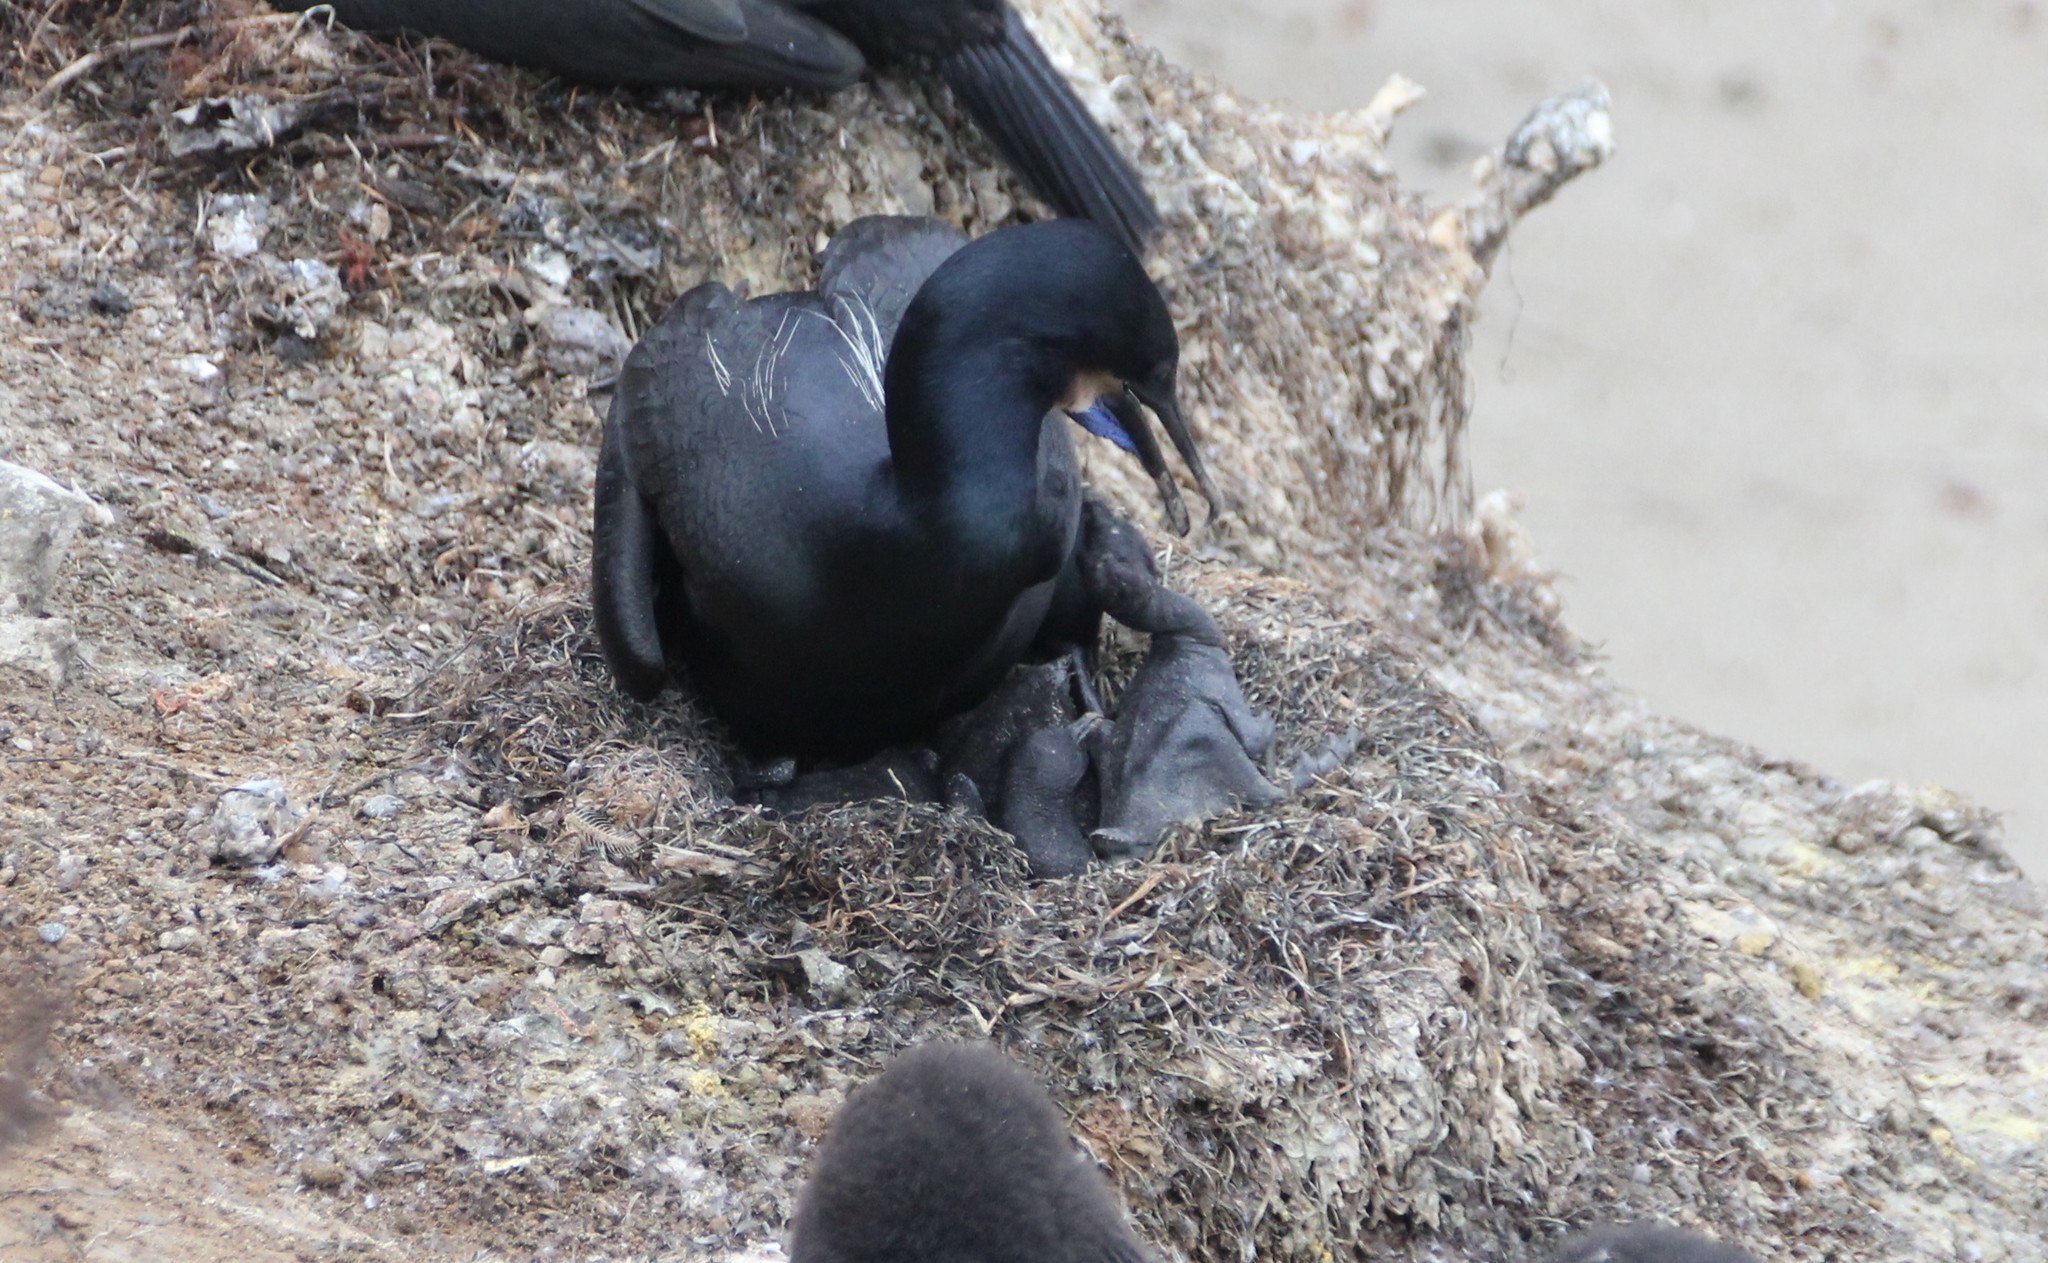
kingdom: Animalia
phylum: Chordata
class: Aves
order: Suliformes
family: Phalacrocoracidae
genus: Urile
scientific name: Urile penicillatus
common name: Brandt's cormorant
